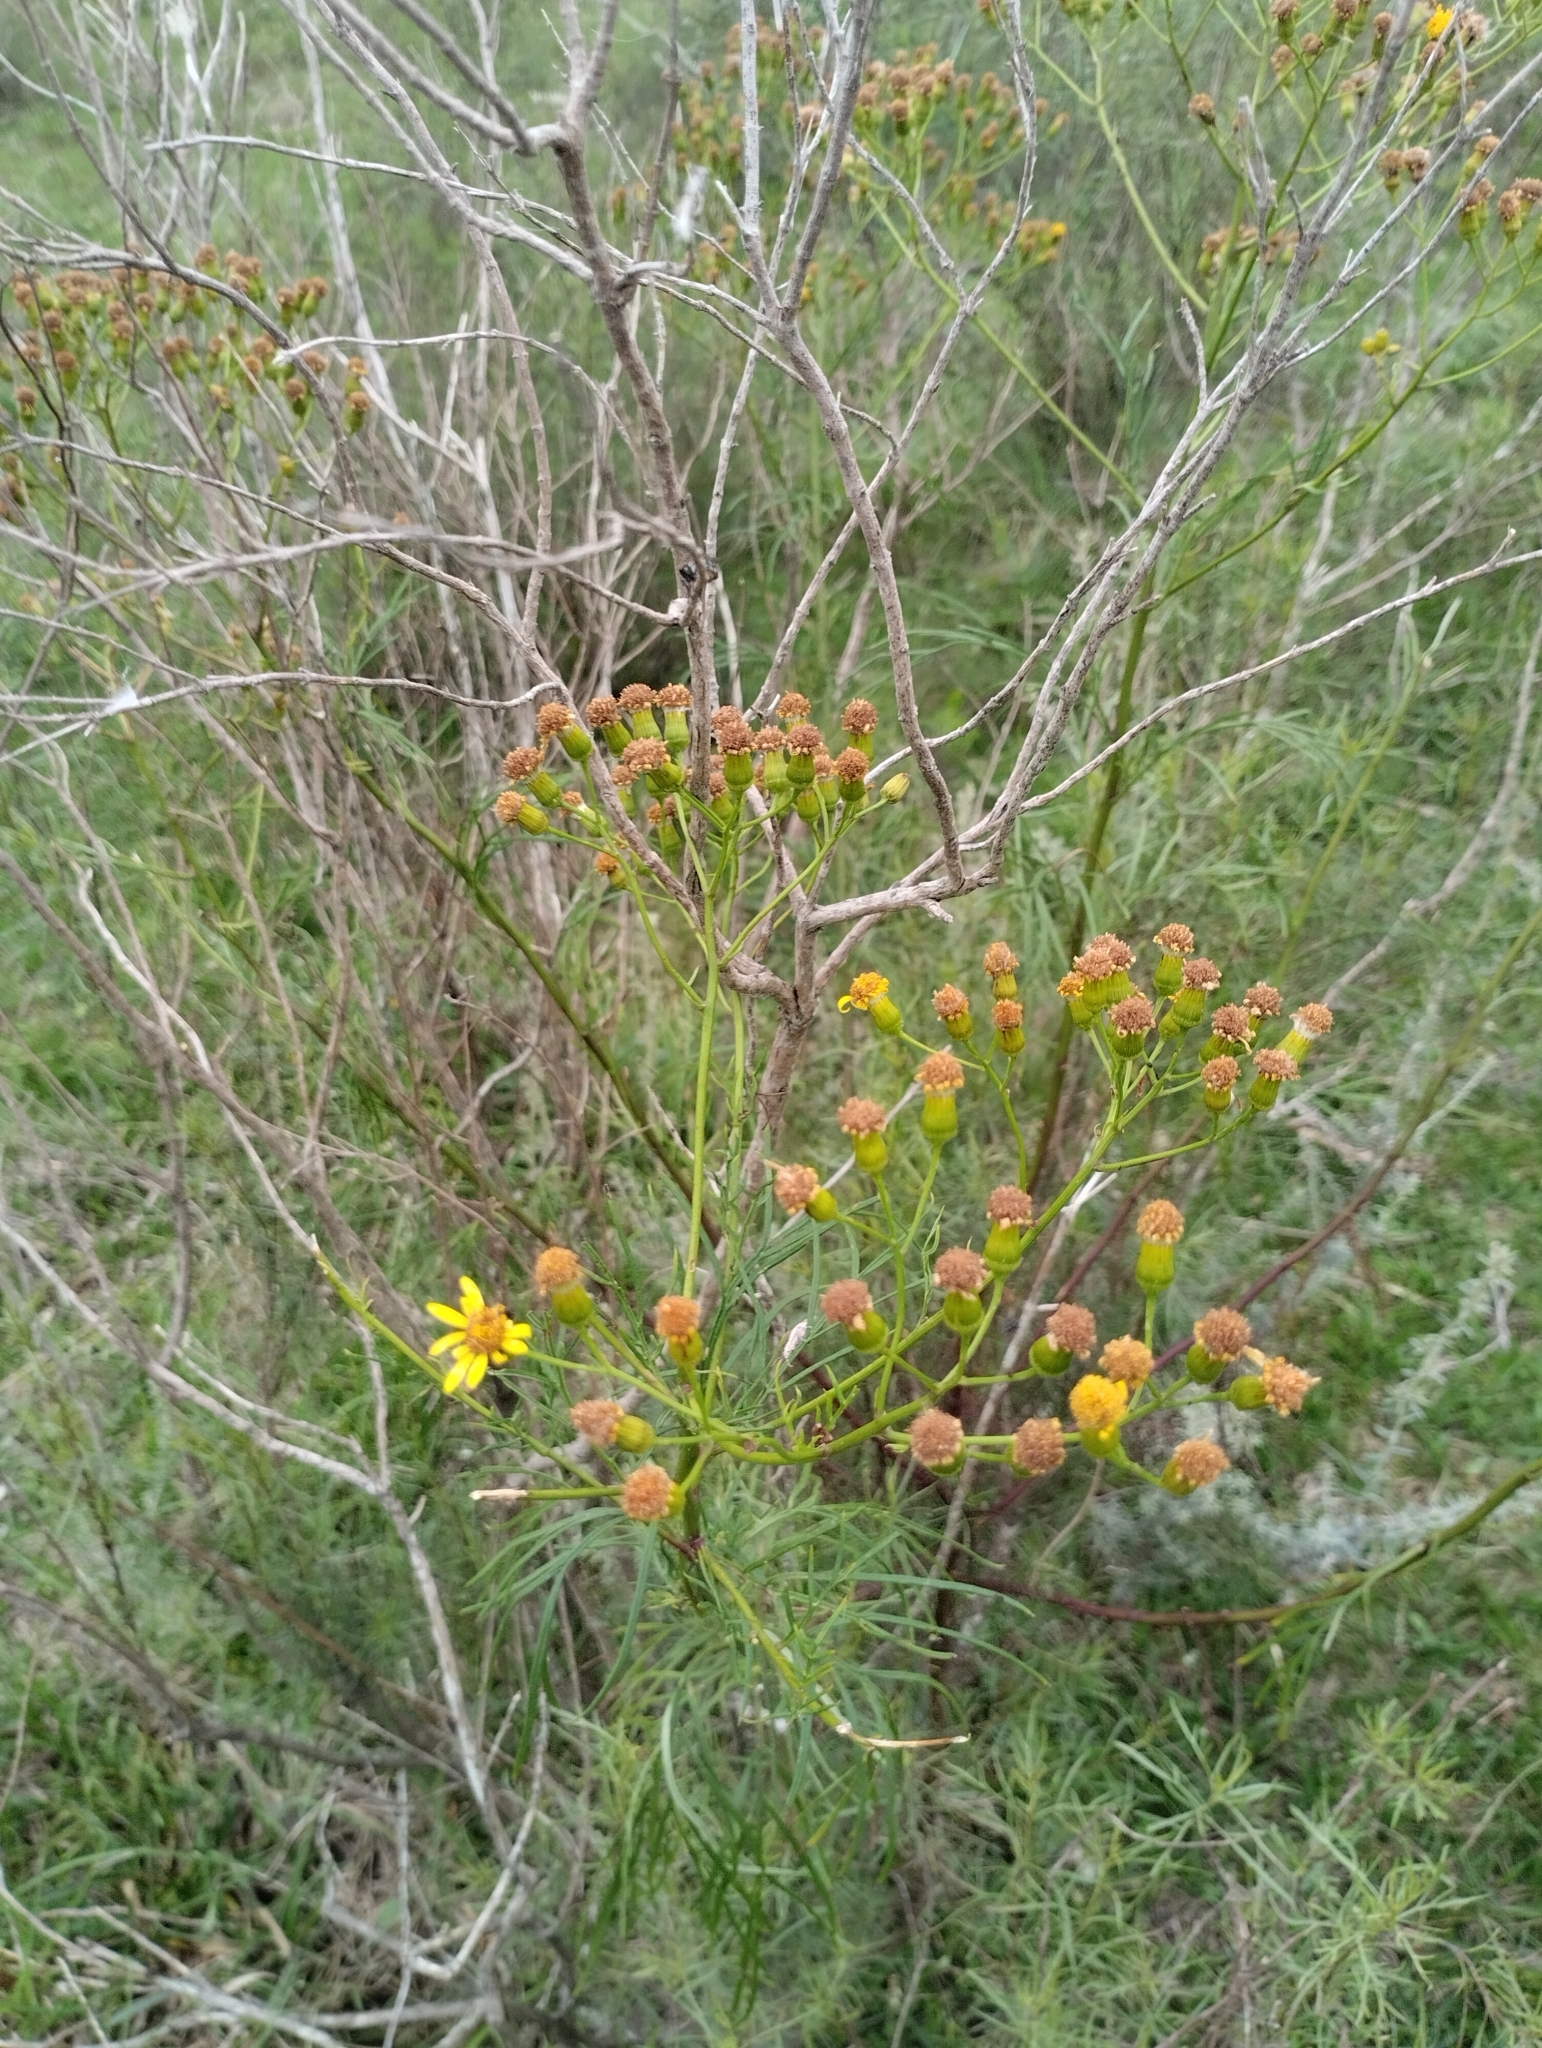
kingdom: Plantae
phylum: Tracheophyta
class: Magnoliopsida
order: Asterales
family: Asteraceae
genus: Senecio
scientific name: Senecio brasiliensis
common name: Hemp-leaf ragwort
